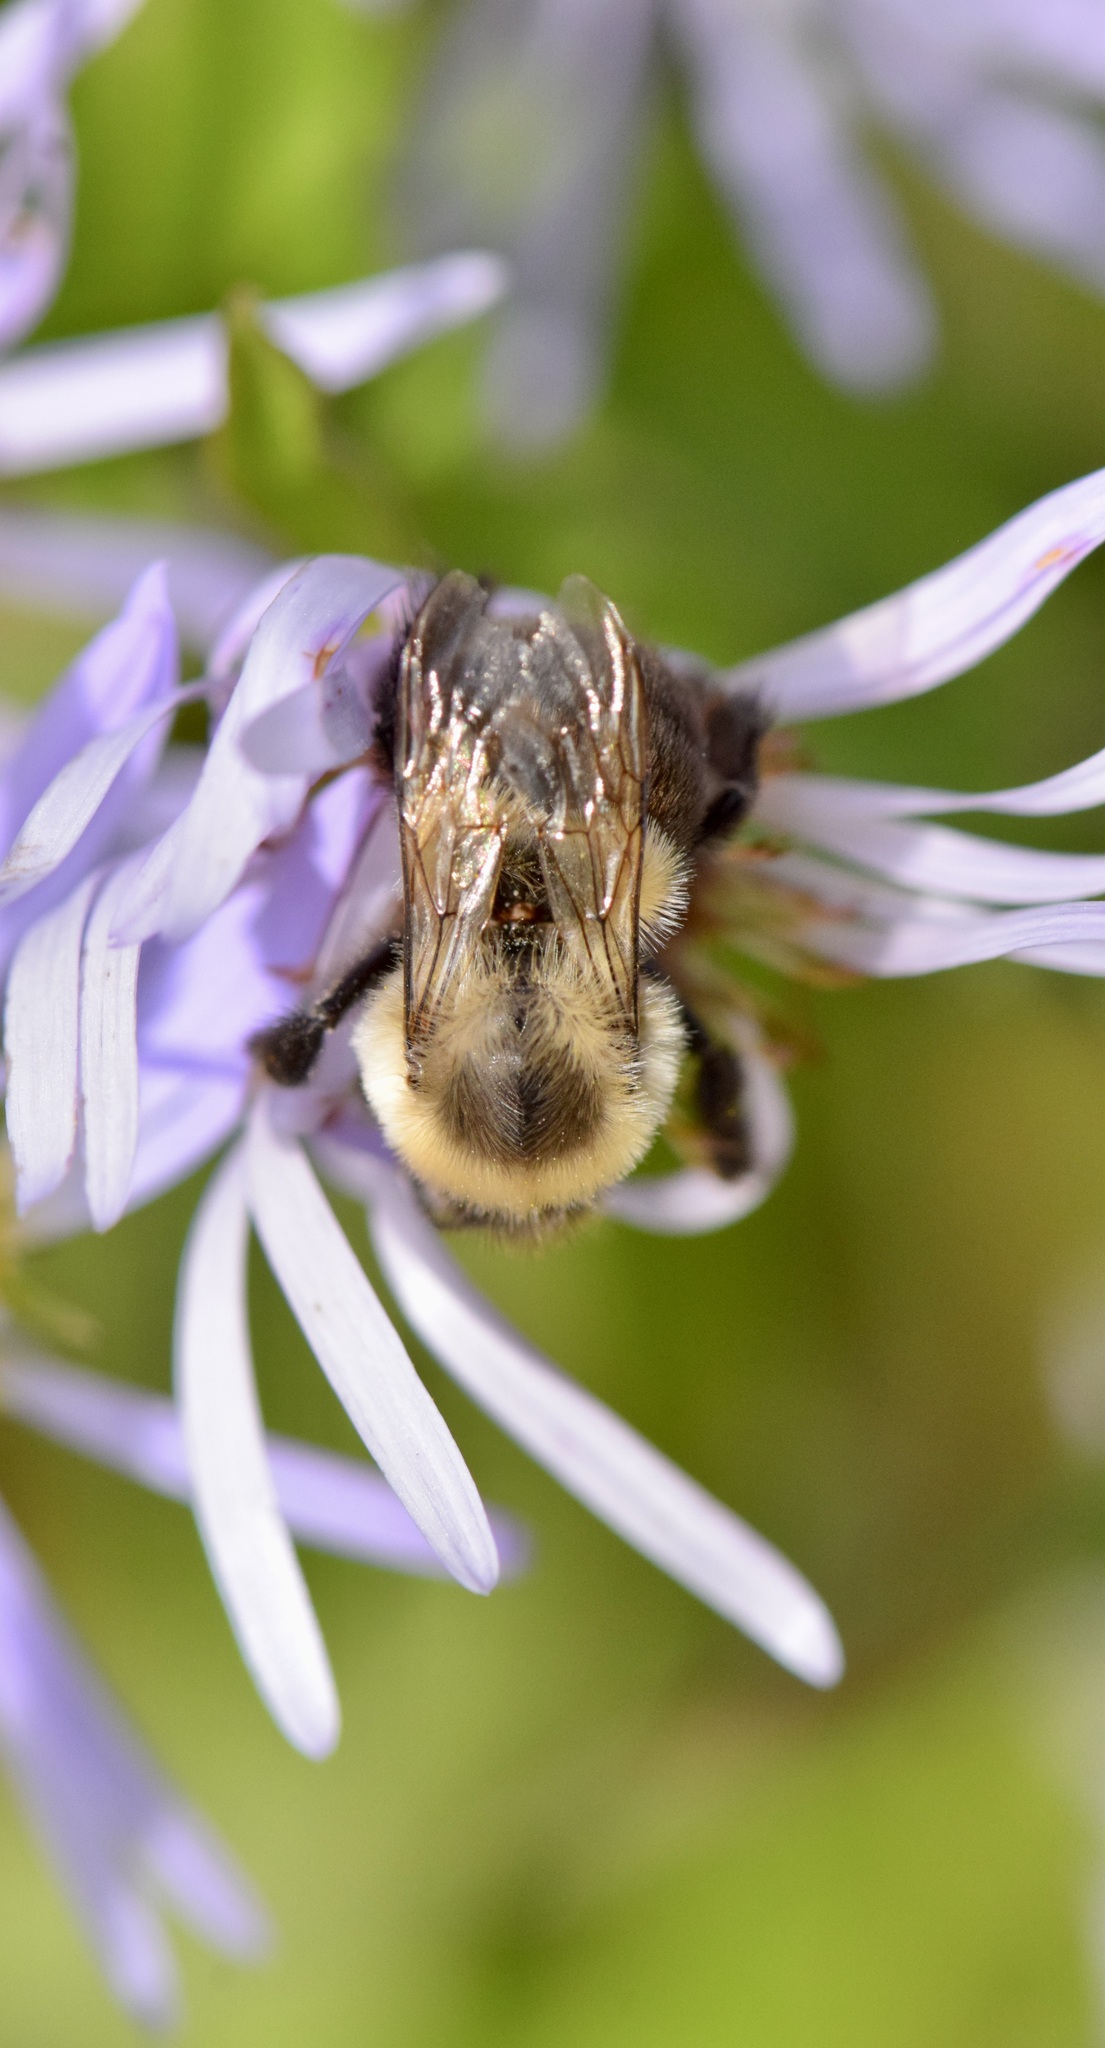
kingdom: Animalia
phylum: Arthropoda
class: Insecta
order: Hymenoptera
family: Apidae
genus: Bombus
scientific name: Bombus impatiens
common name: Common eastern bumble bee
